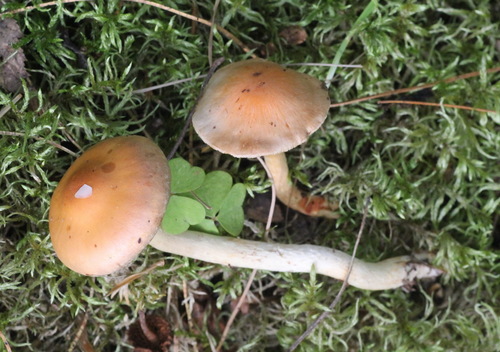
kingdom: Fungi
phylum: Basidiomycota
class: Agaricomycetes
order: Agaricales
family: Strophariaceae
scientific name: Strophariaceae
